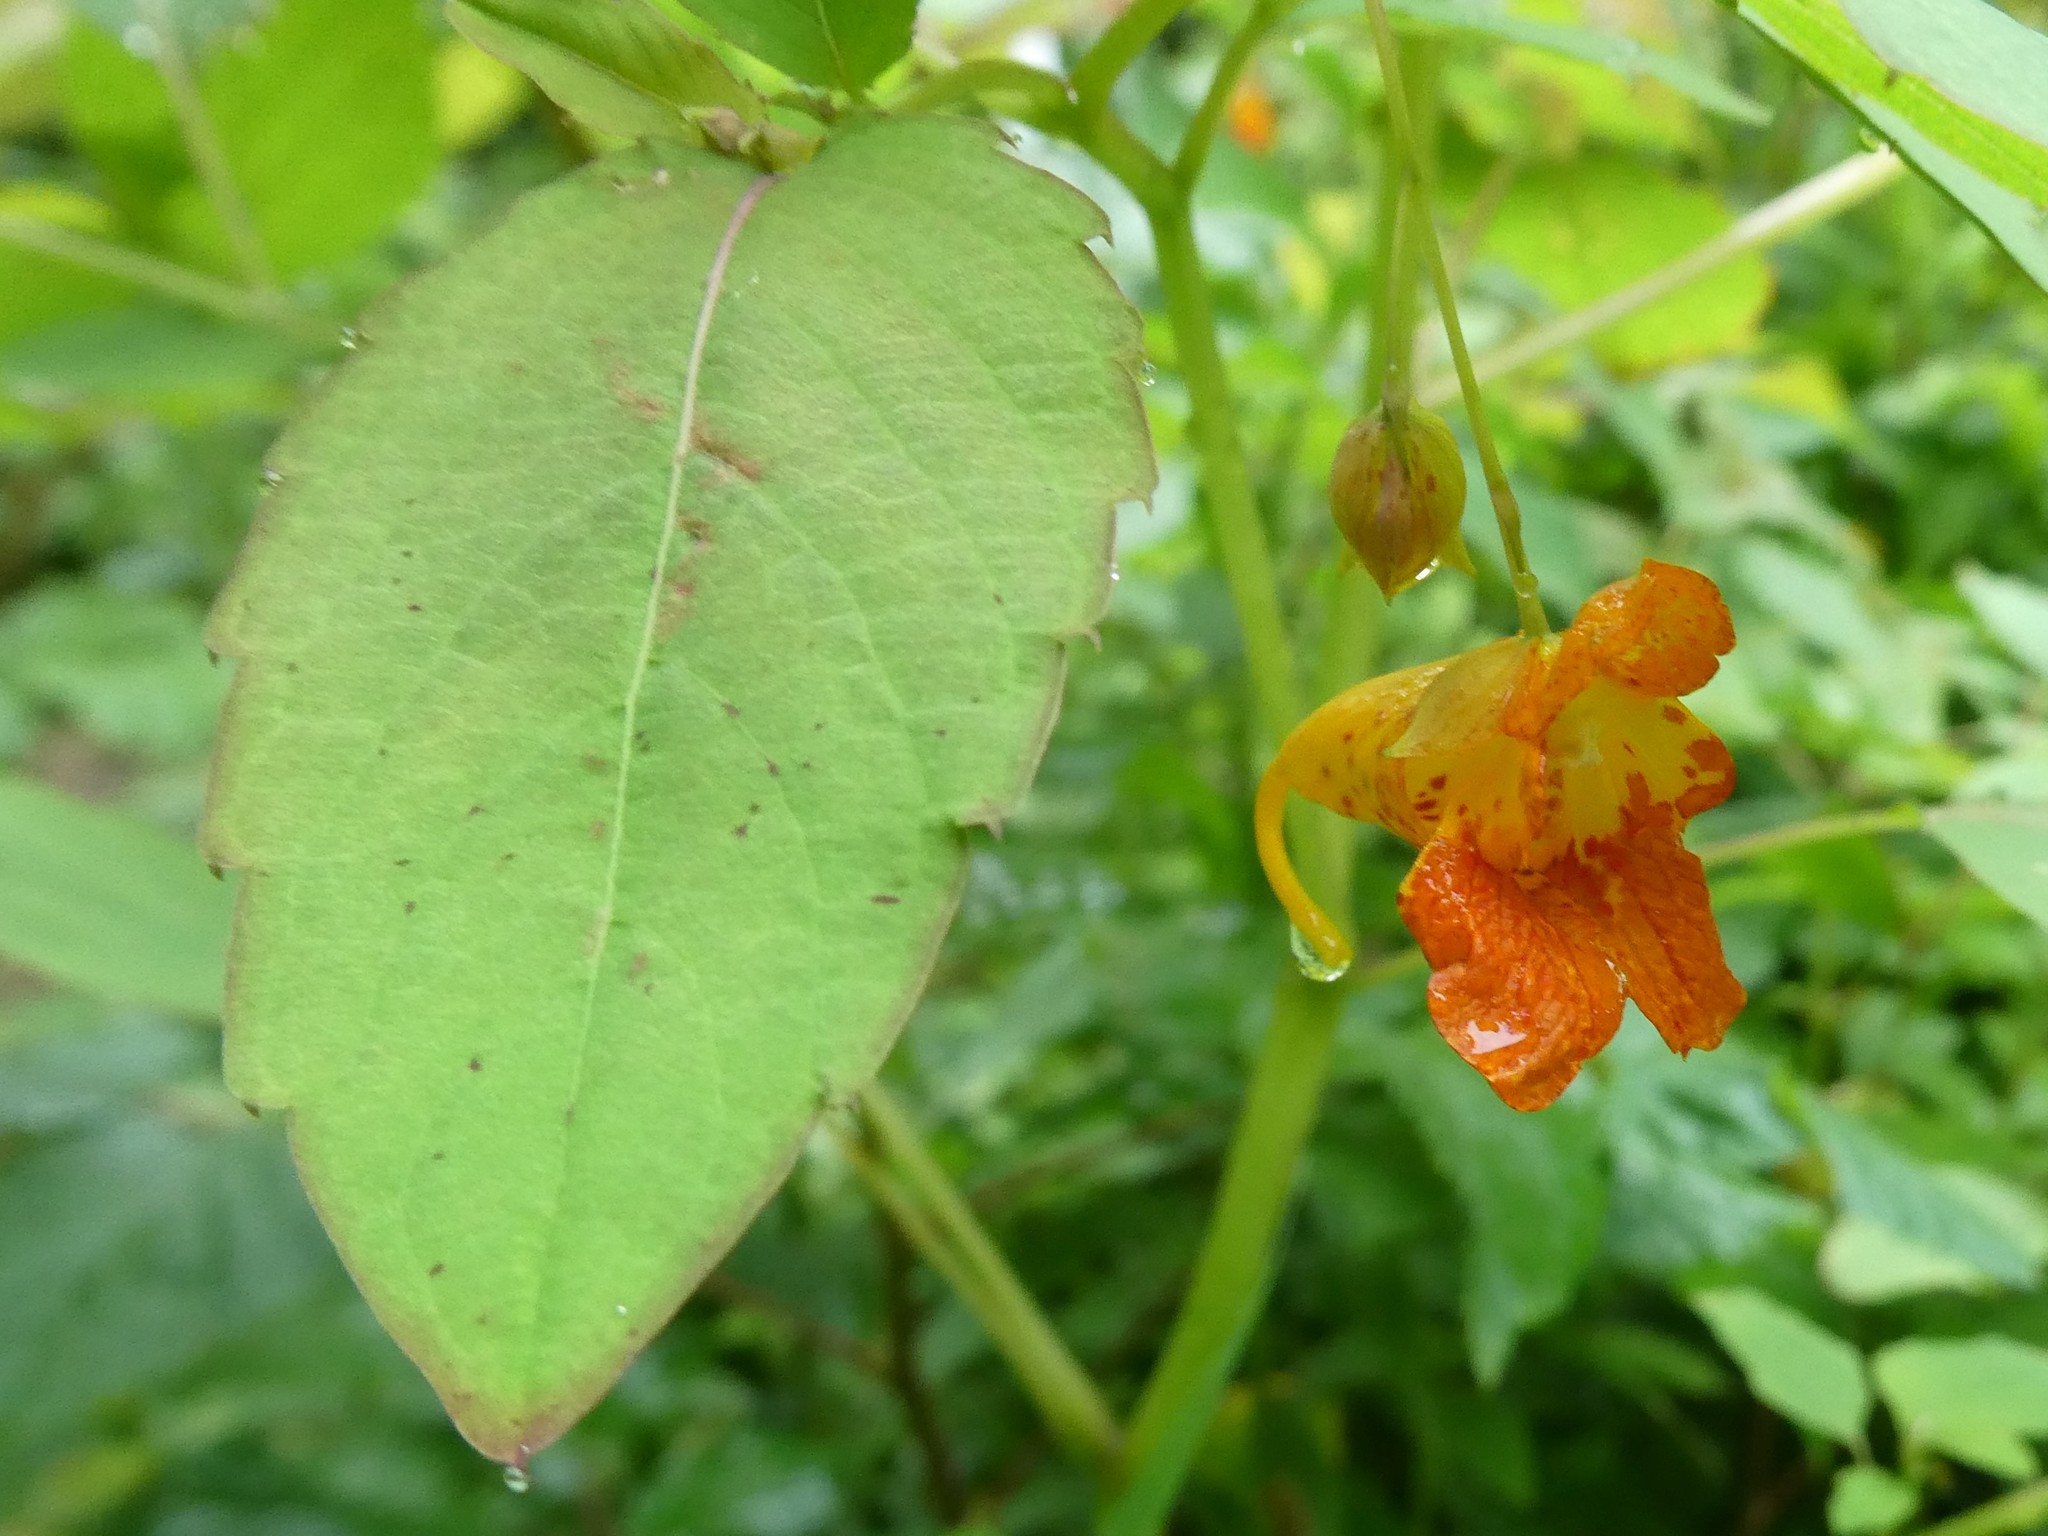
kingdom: Plantae
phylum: Tracheophyta
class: Magnoliopsida
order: Ericales
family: Balsaminaceae
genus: Impatiens
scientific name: Impatiens capensis
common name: Orange balsam
